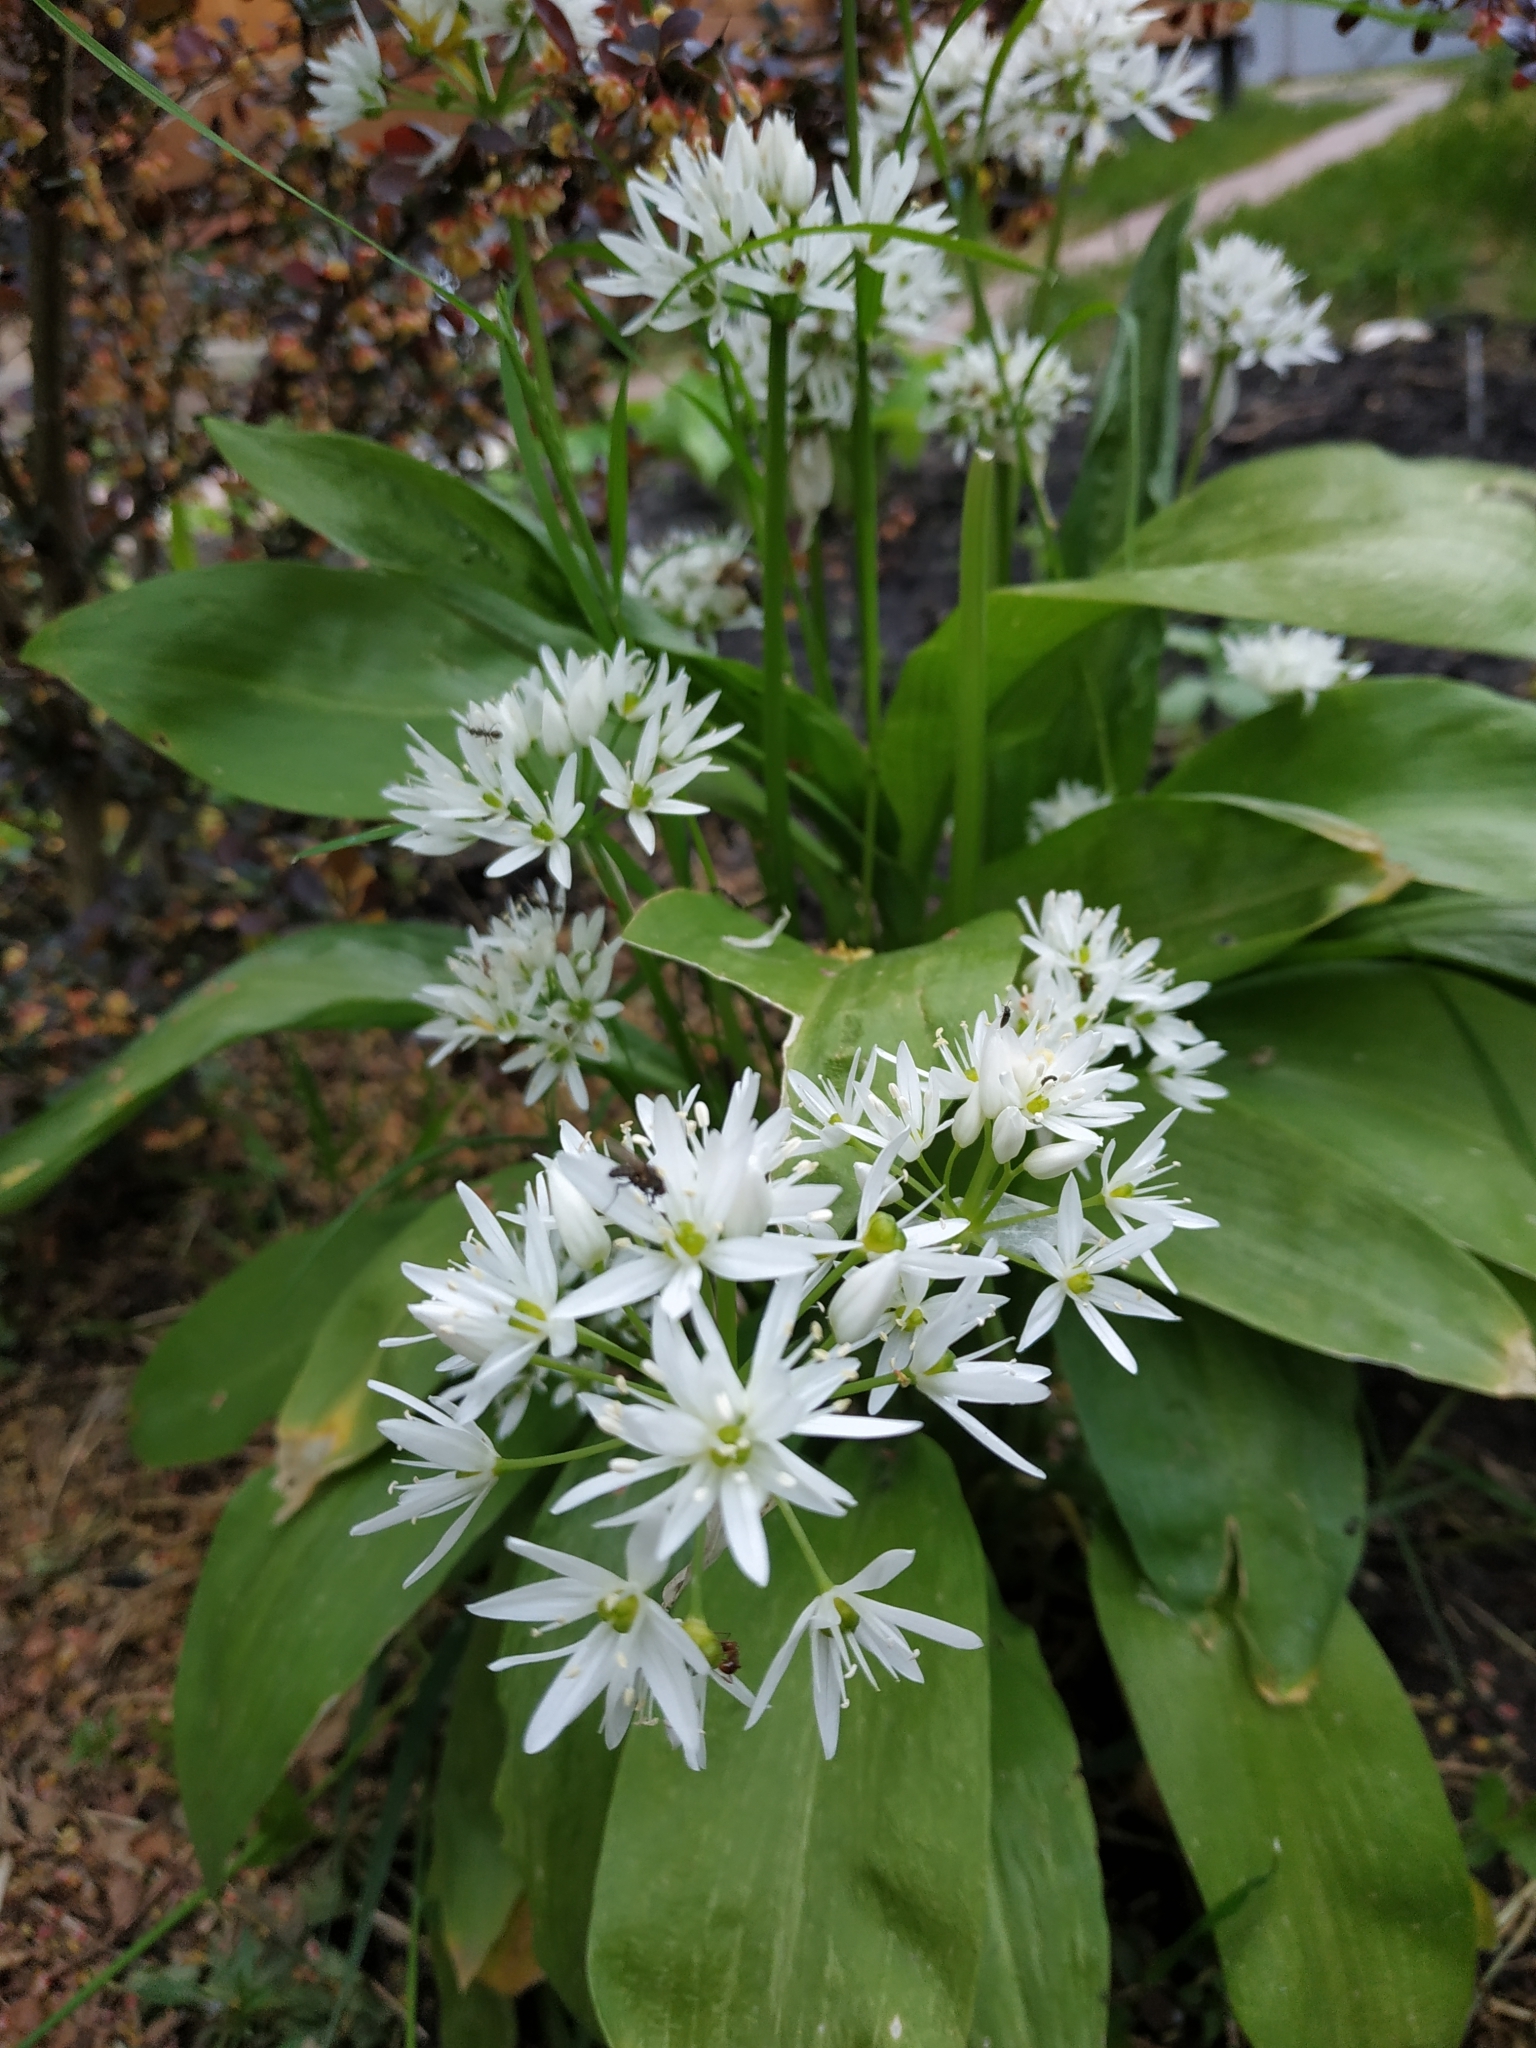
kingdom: Plantae
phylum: Tracheophyta
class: Liliopsida
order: Asparagales
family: Amaryllidaceae
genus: Allium
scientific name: Allium ursinum
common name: Ramsons
